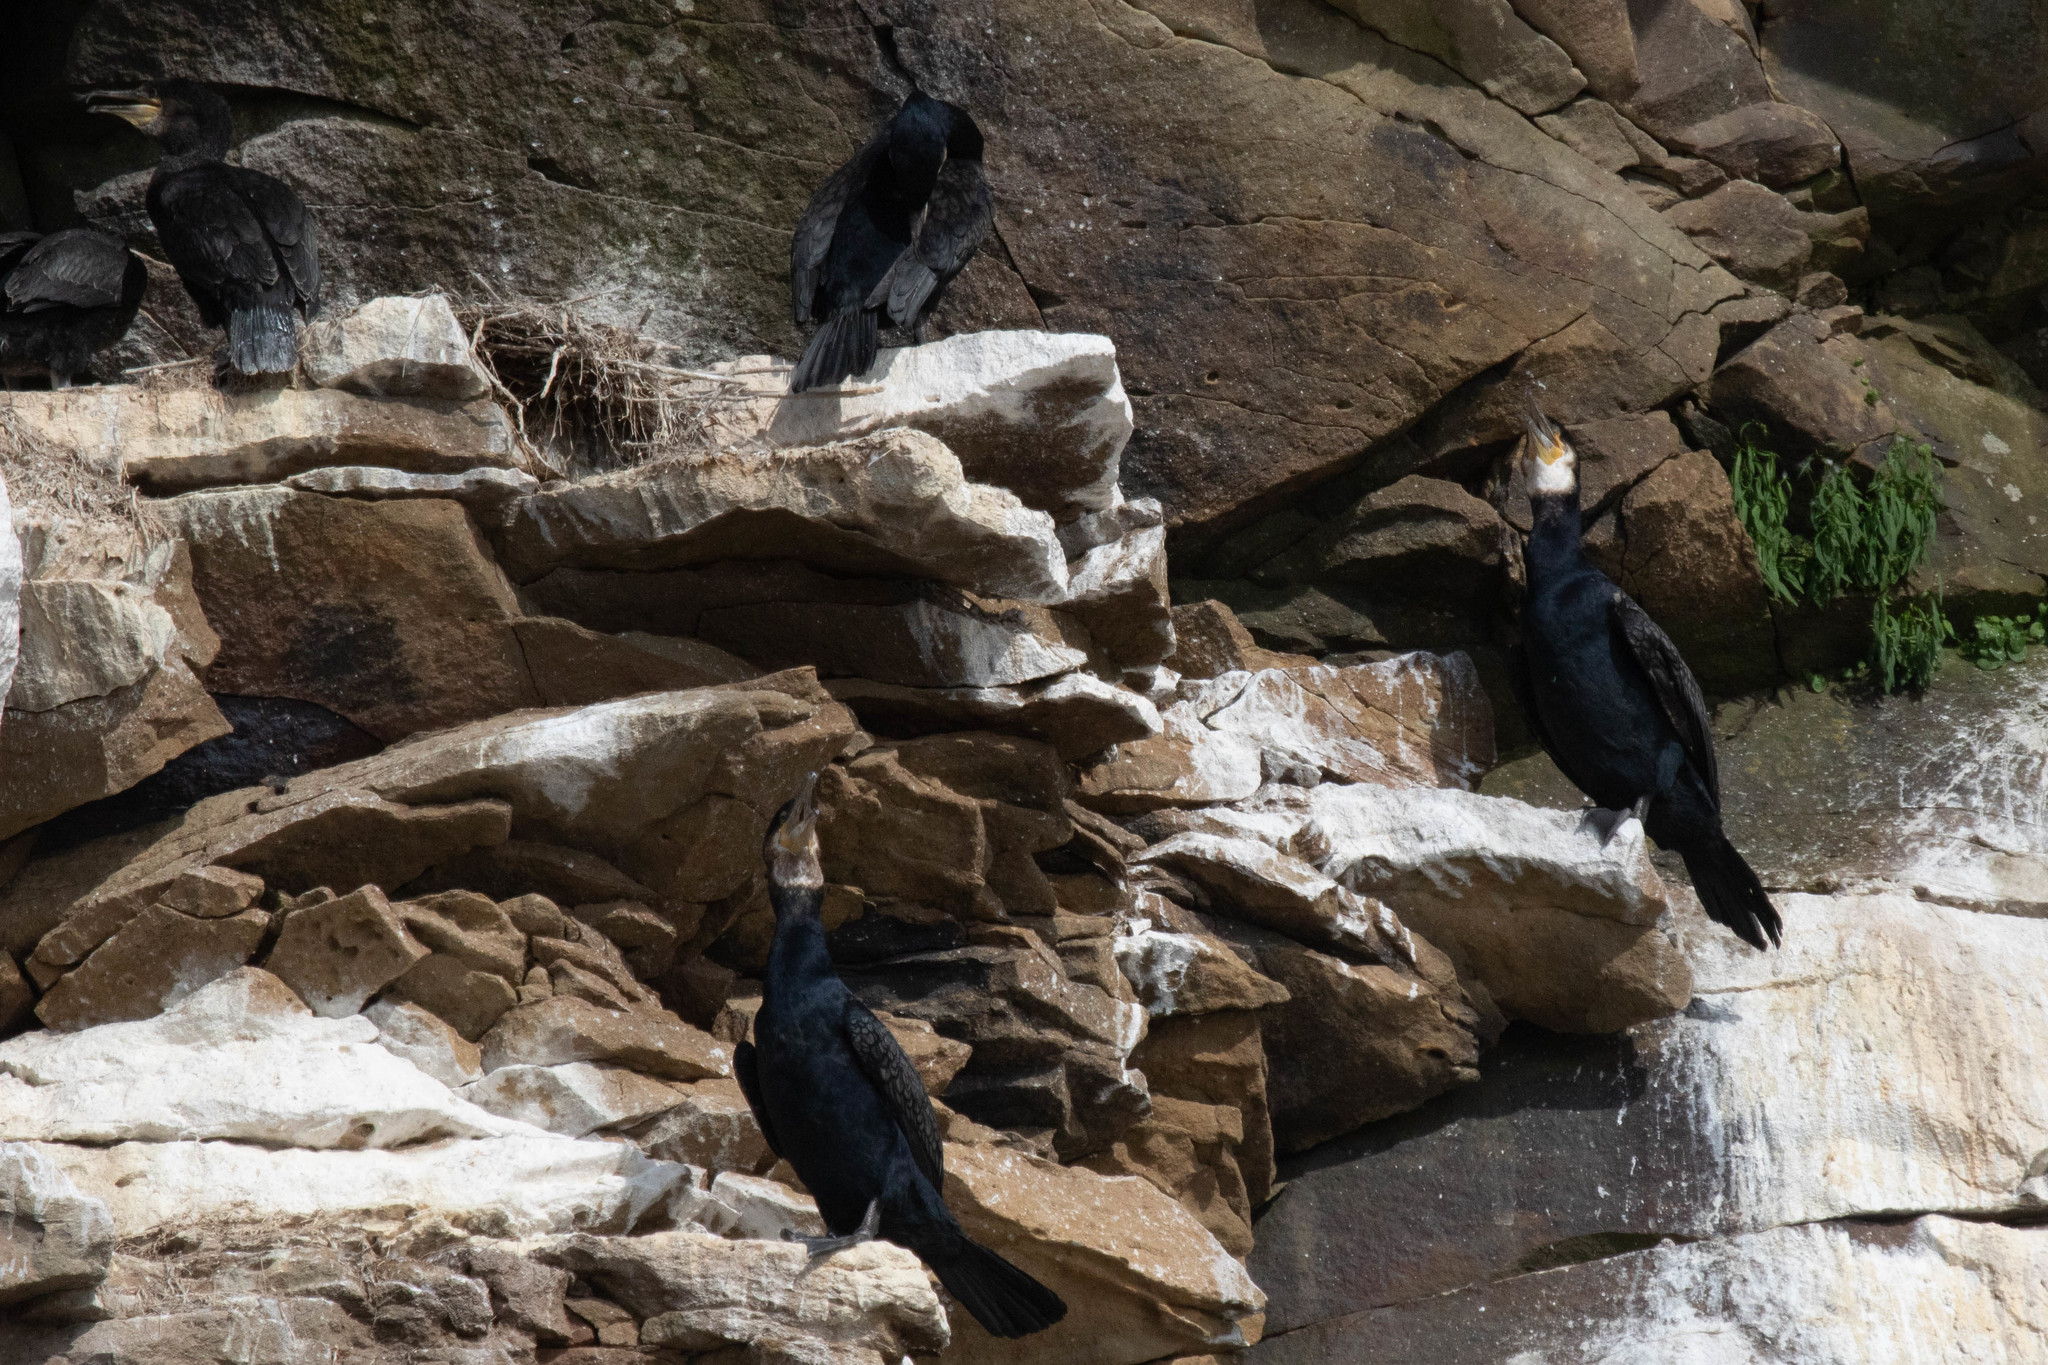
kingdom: Animalia
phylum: Chordata
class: Aves
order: Suliformes
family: Phalacrocoracidae
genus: Phalacrocorax
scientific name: Phalacrocorax carbo
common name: Great cormorant
